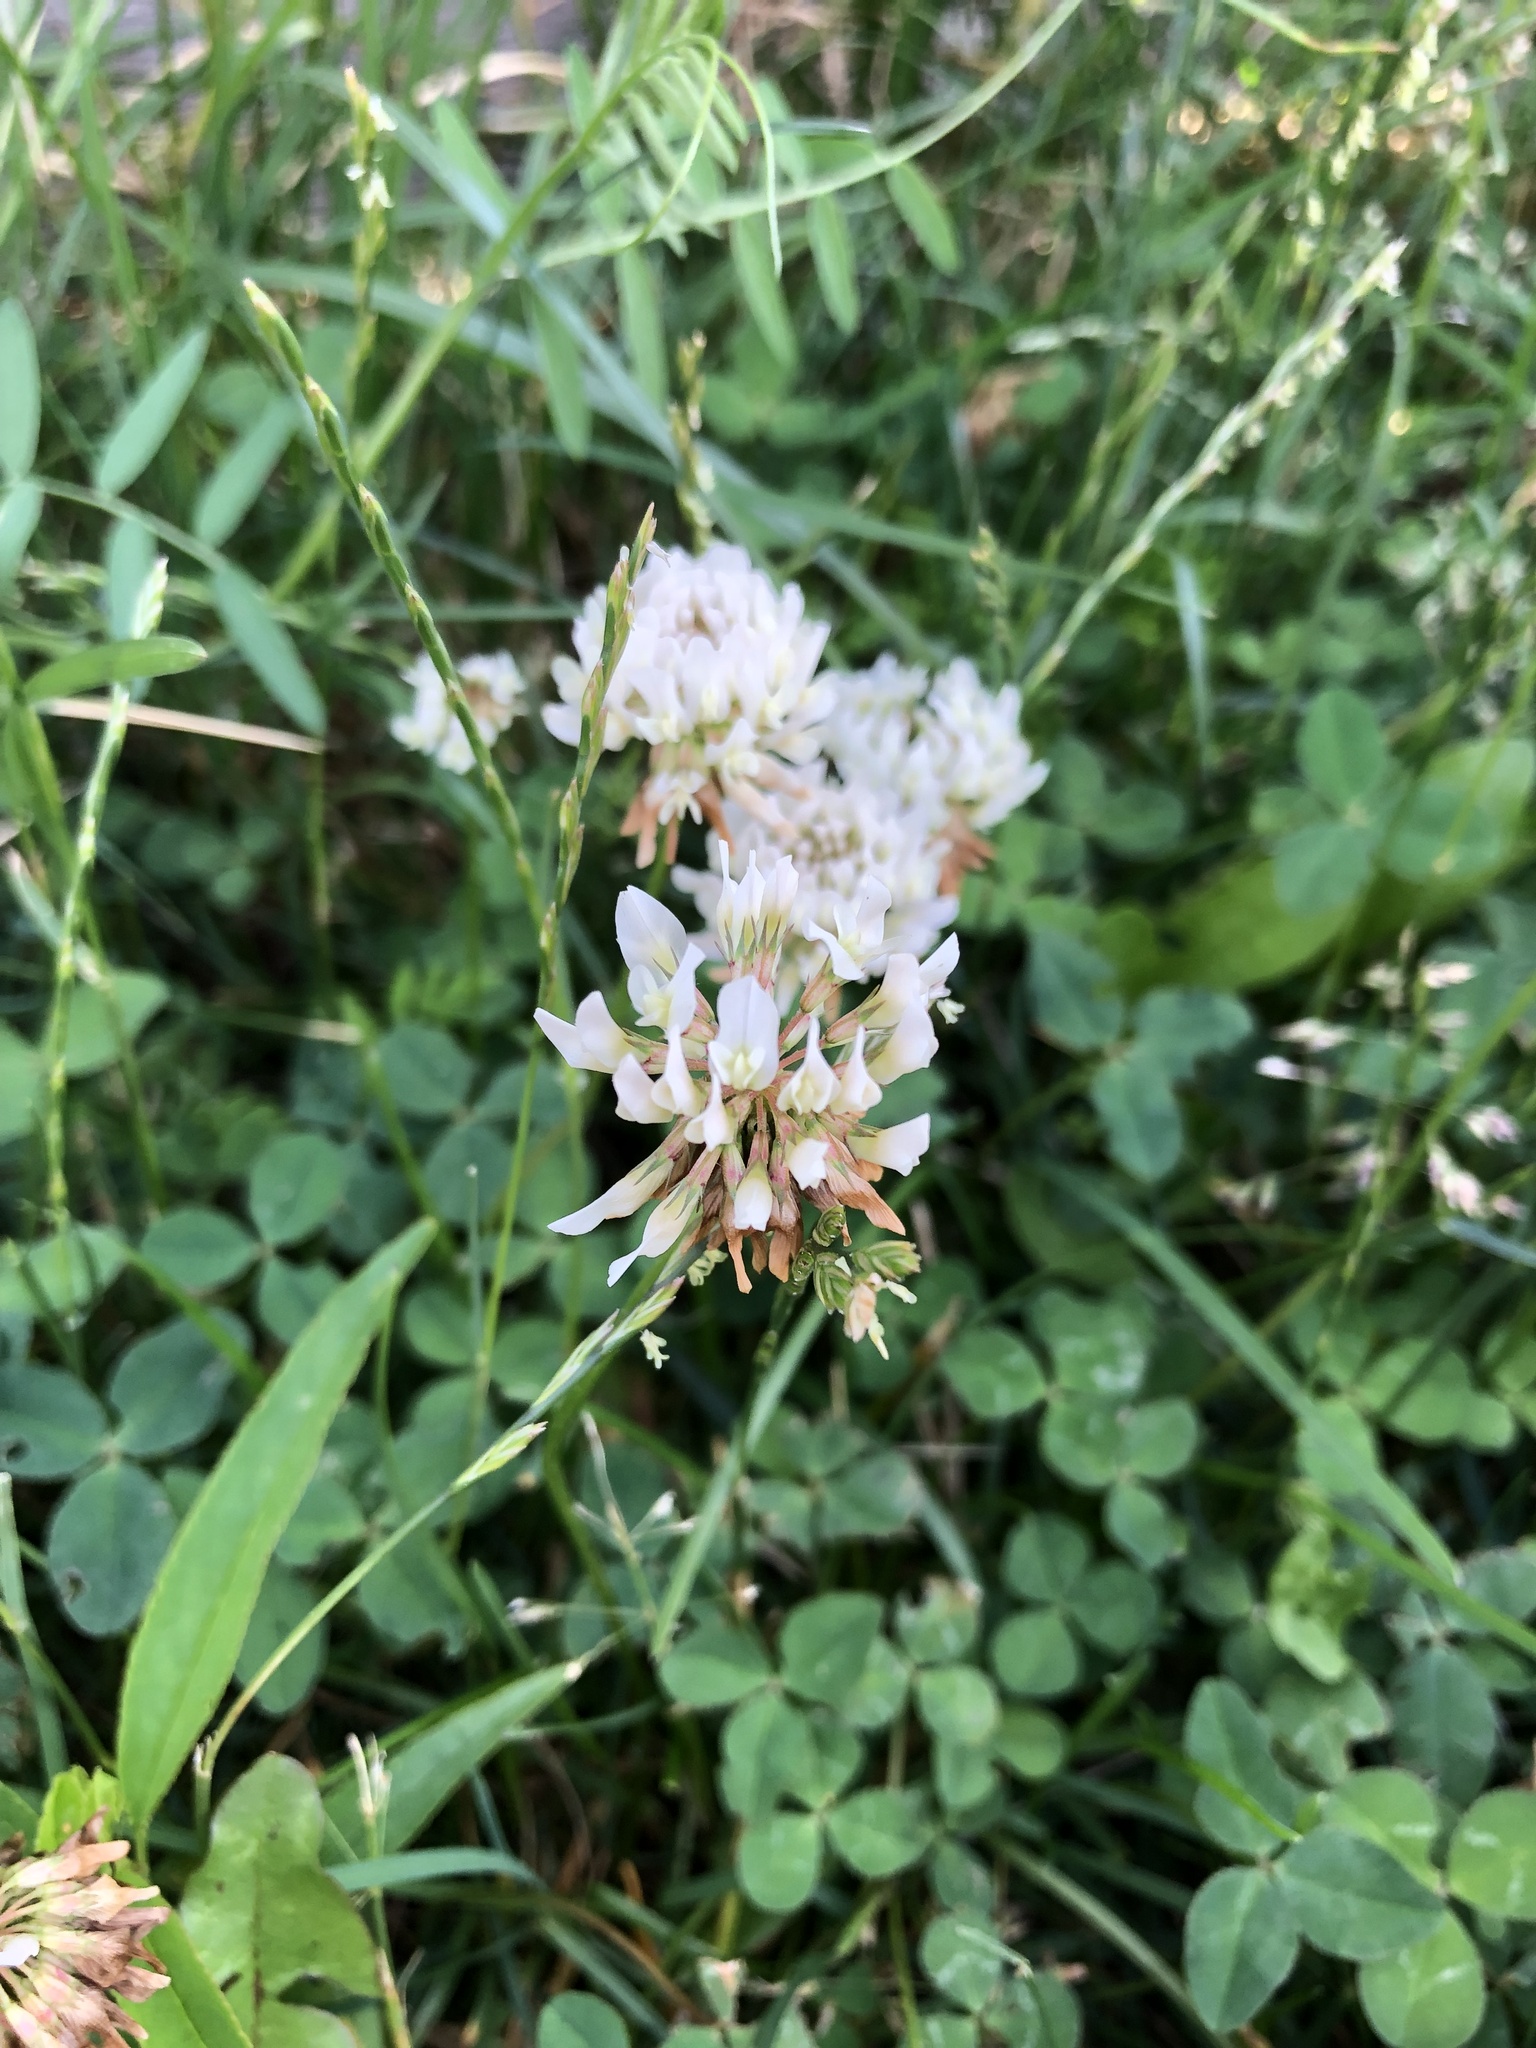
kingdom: Plantae
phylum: Tracheophyta
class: Magnoliopsida
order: Fabales
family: Fabaceae
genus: Trifolium
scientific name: Trifolium repens
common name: White clover
